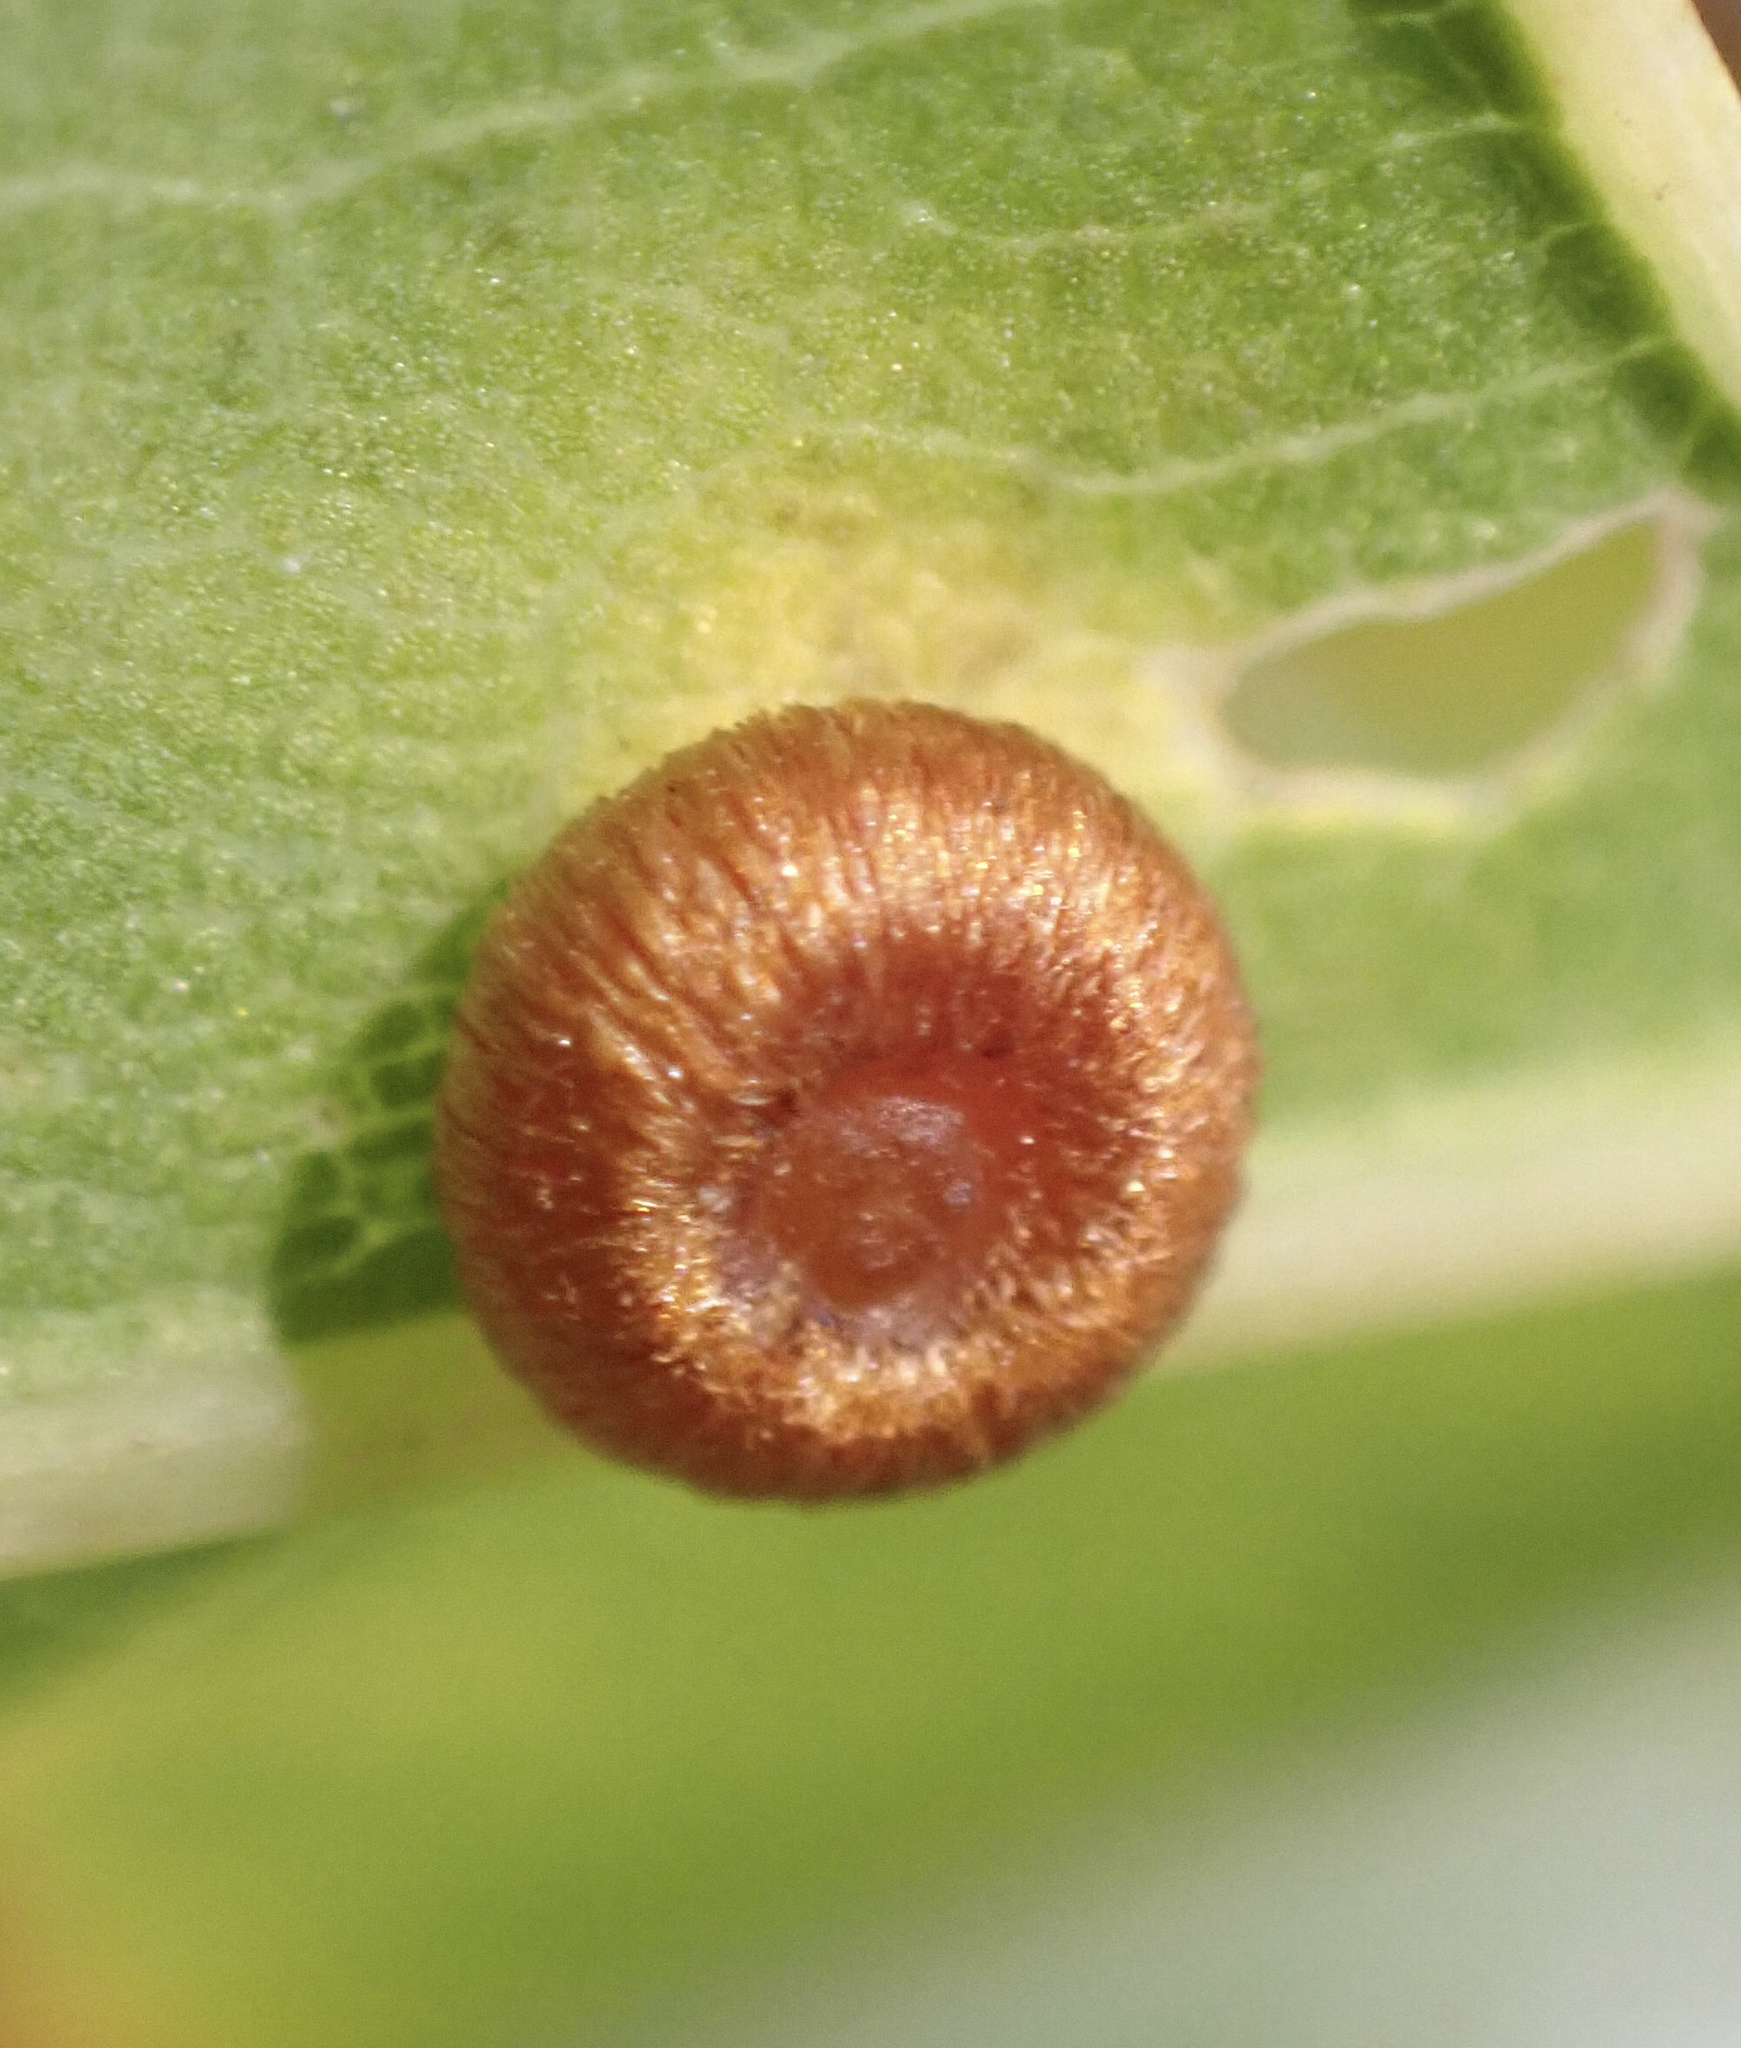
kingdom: Animalia
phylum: Arthropoda
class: Insecta
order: Hymenoptera
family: Cynipidae
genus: Neuroterus
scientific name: Neuroterus numismalis
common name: Silk-button spangle gall
